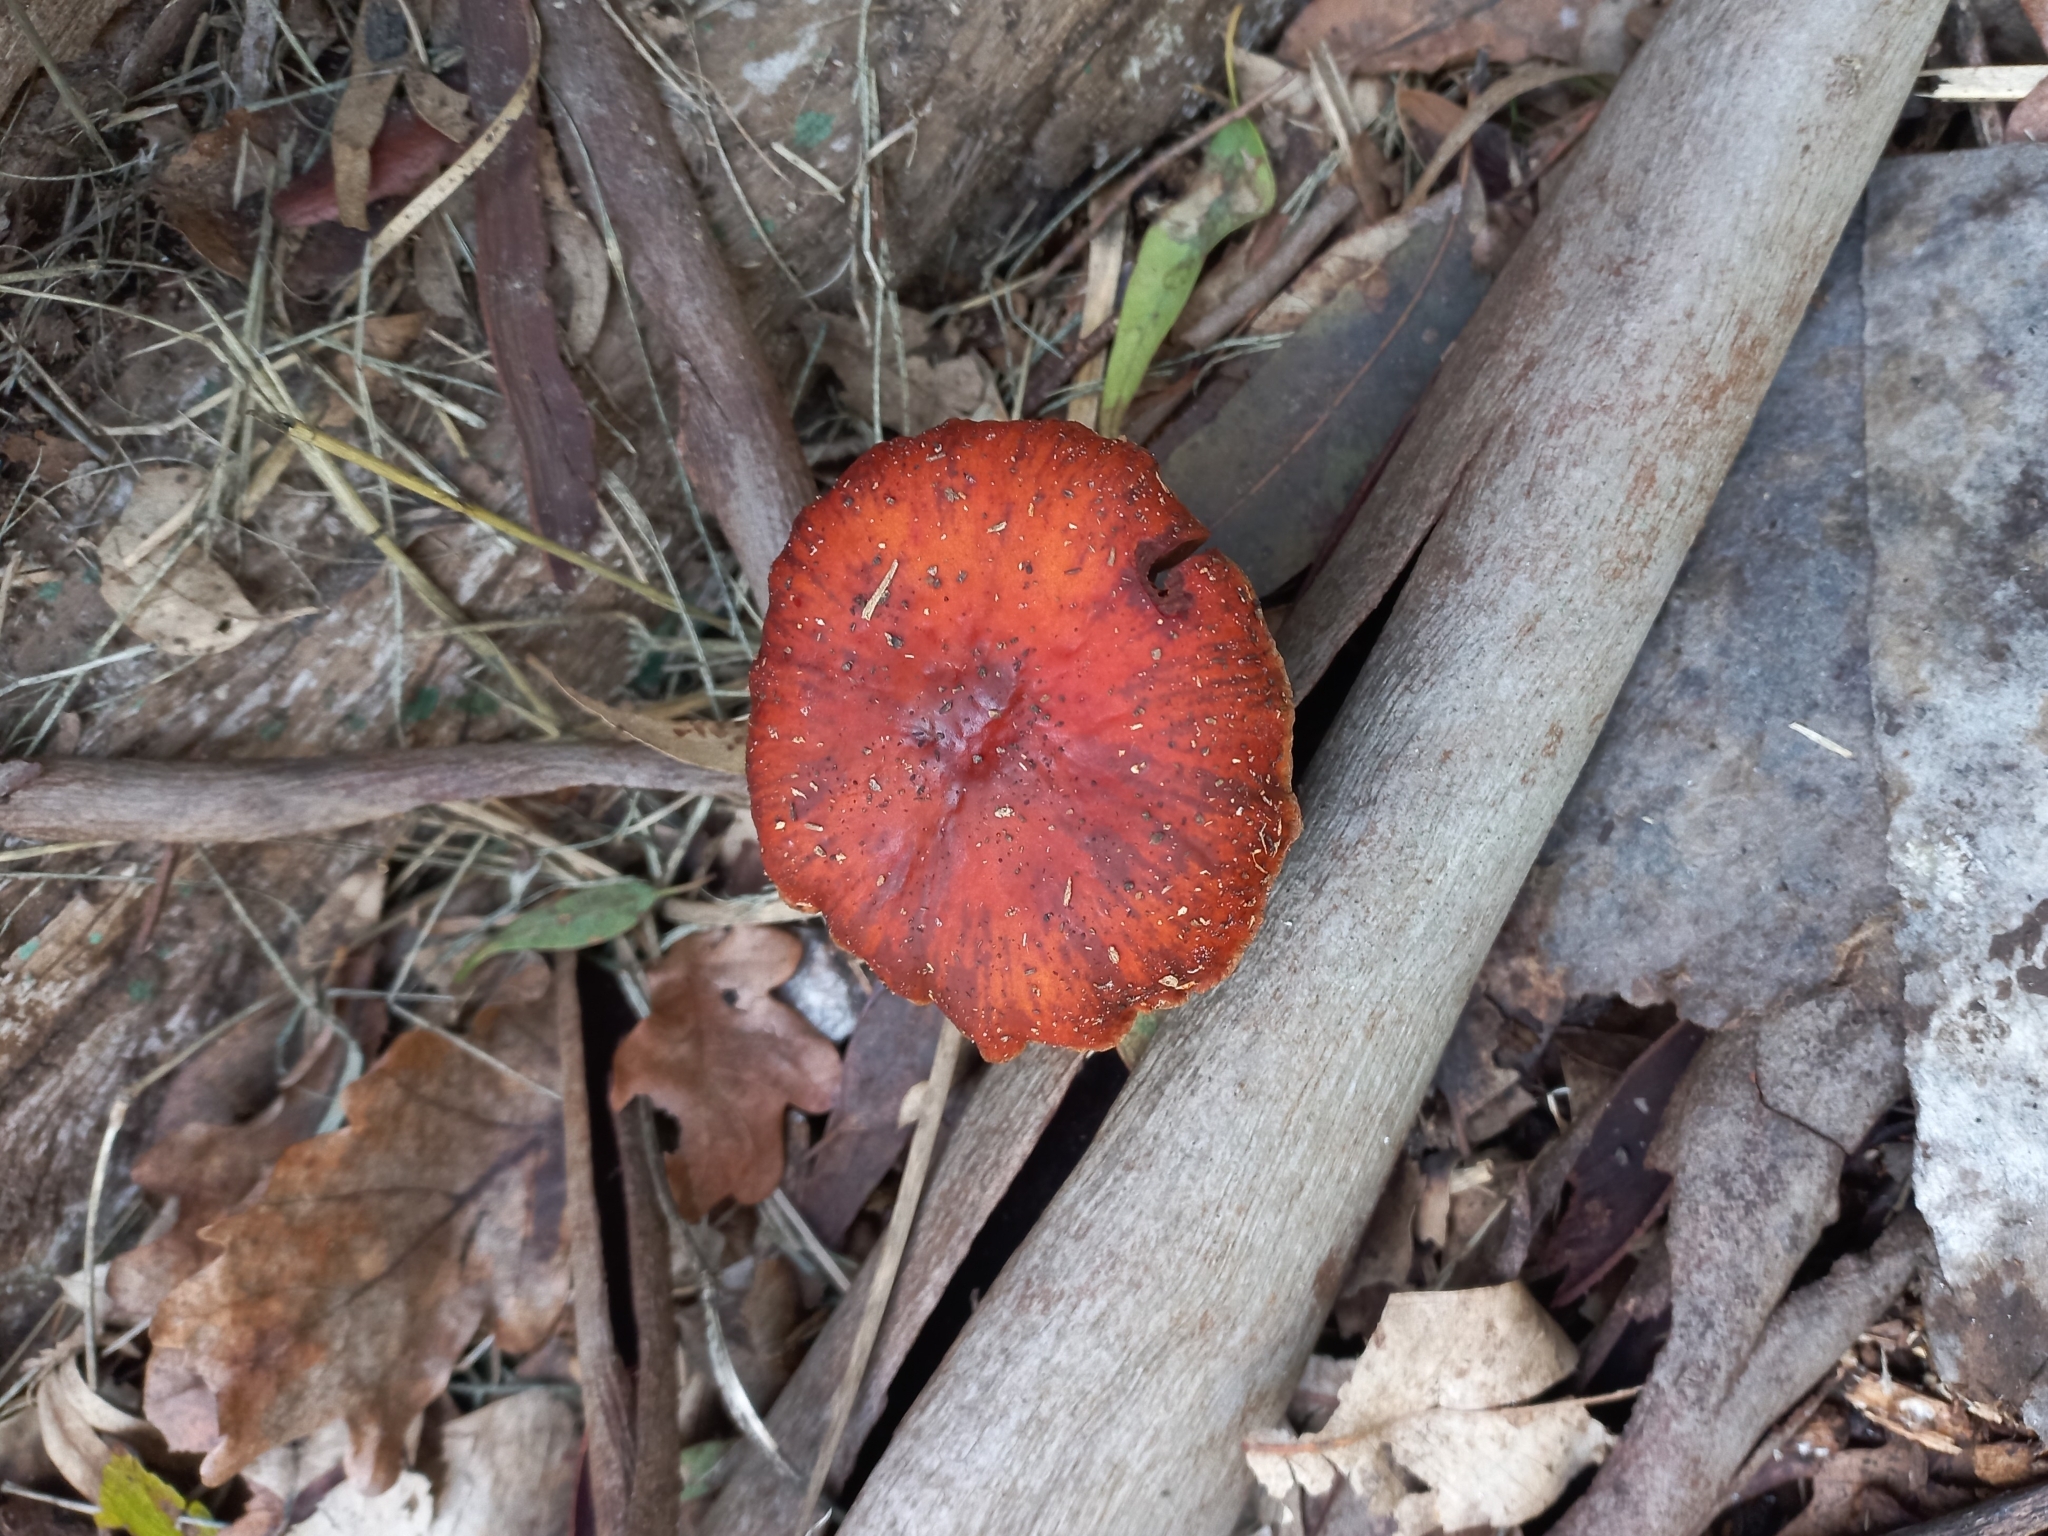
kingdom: Fungi
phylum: Basidiomycota
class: Agaricomycetes
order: Agaricales
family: Strophariaceae
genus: Leratiomyces
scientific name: Leratiomyces ceres
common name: Redlead roundhead
